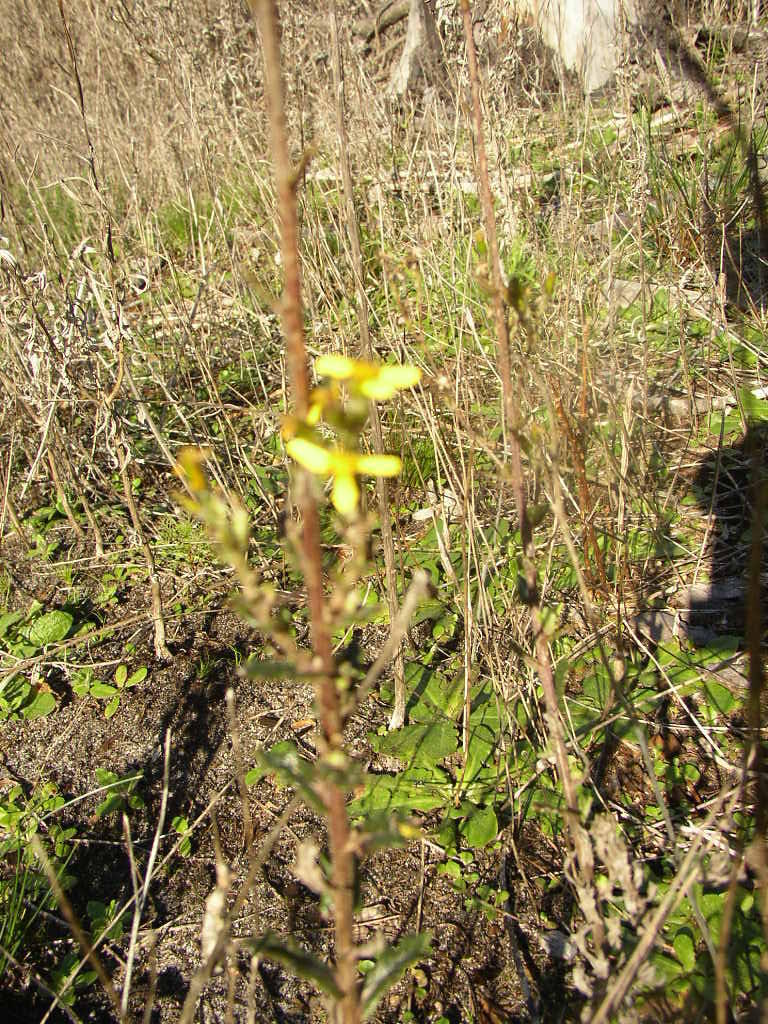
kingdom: Plantae
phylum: Tracheophyta
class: Magnoliopsida
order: Asterales
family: Asteraceae
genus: Senecio
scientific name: Senecio pubigerus
